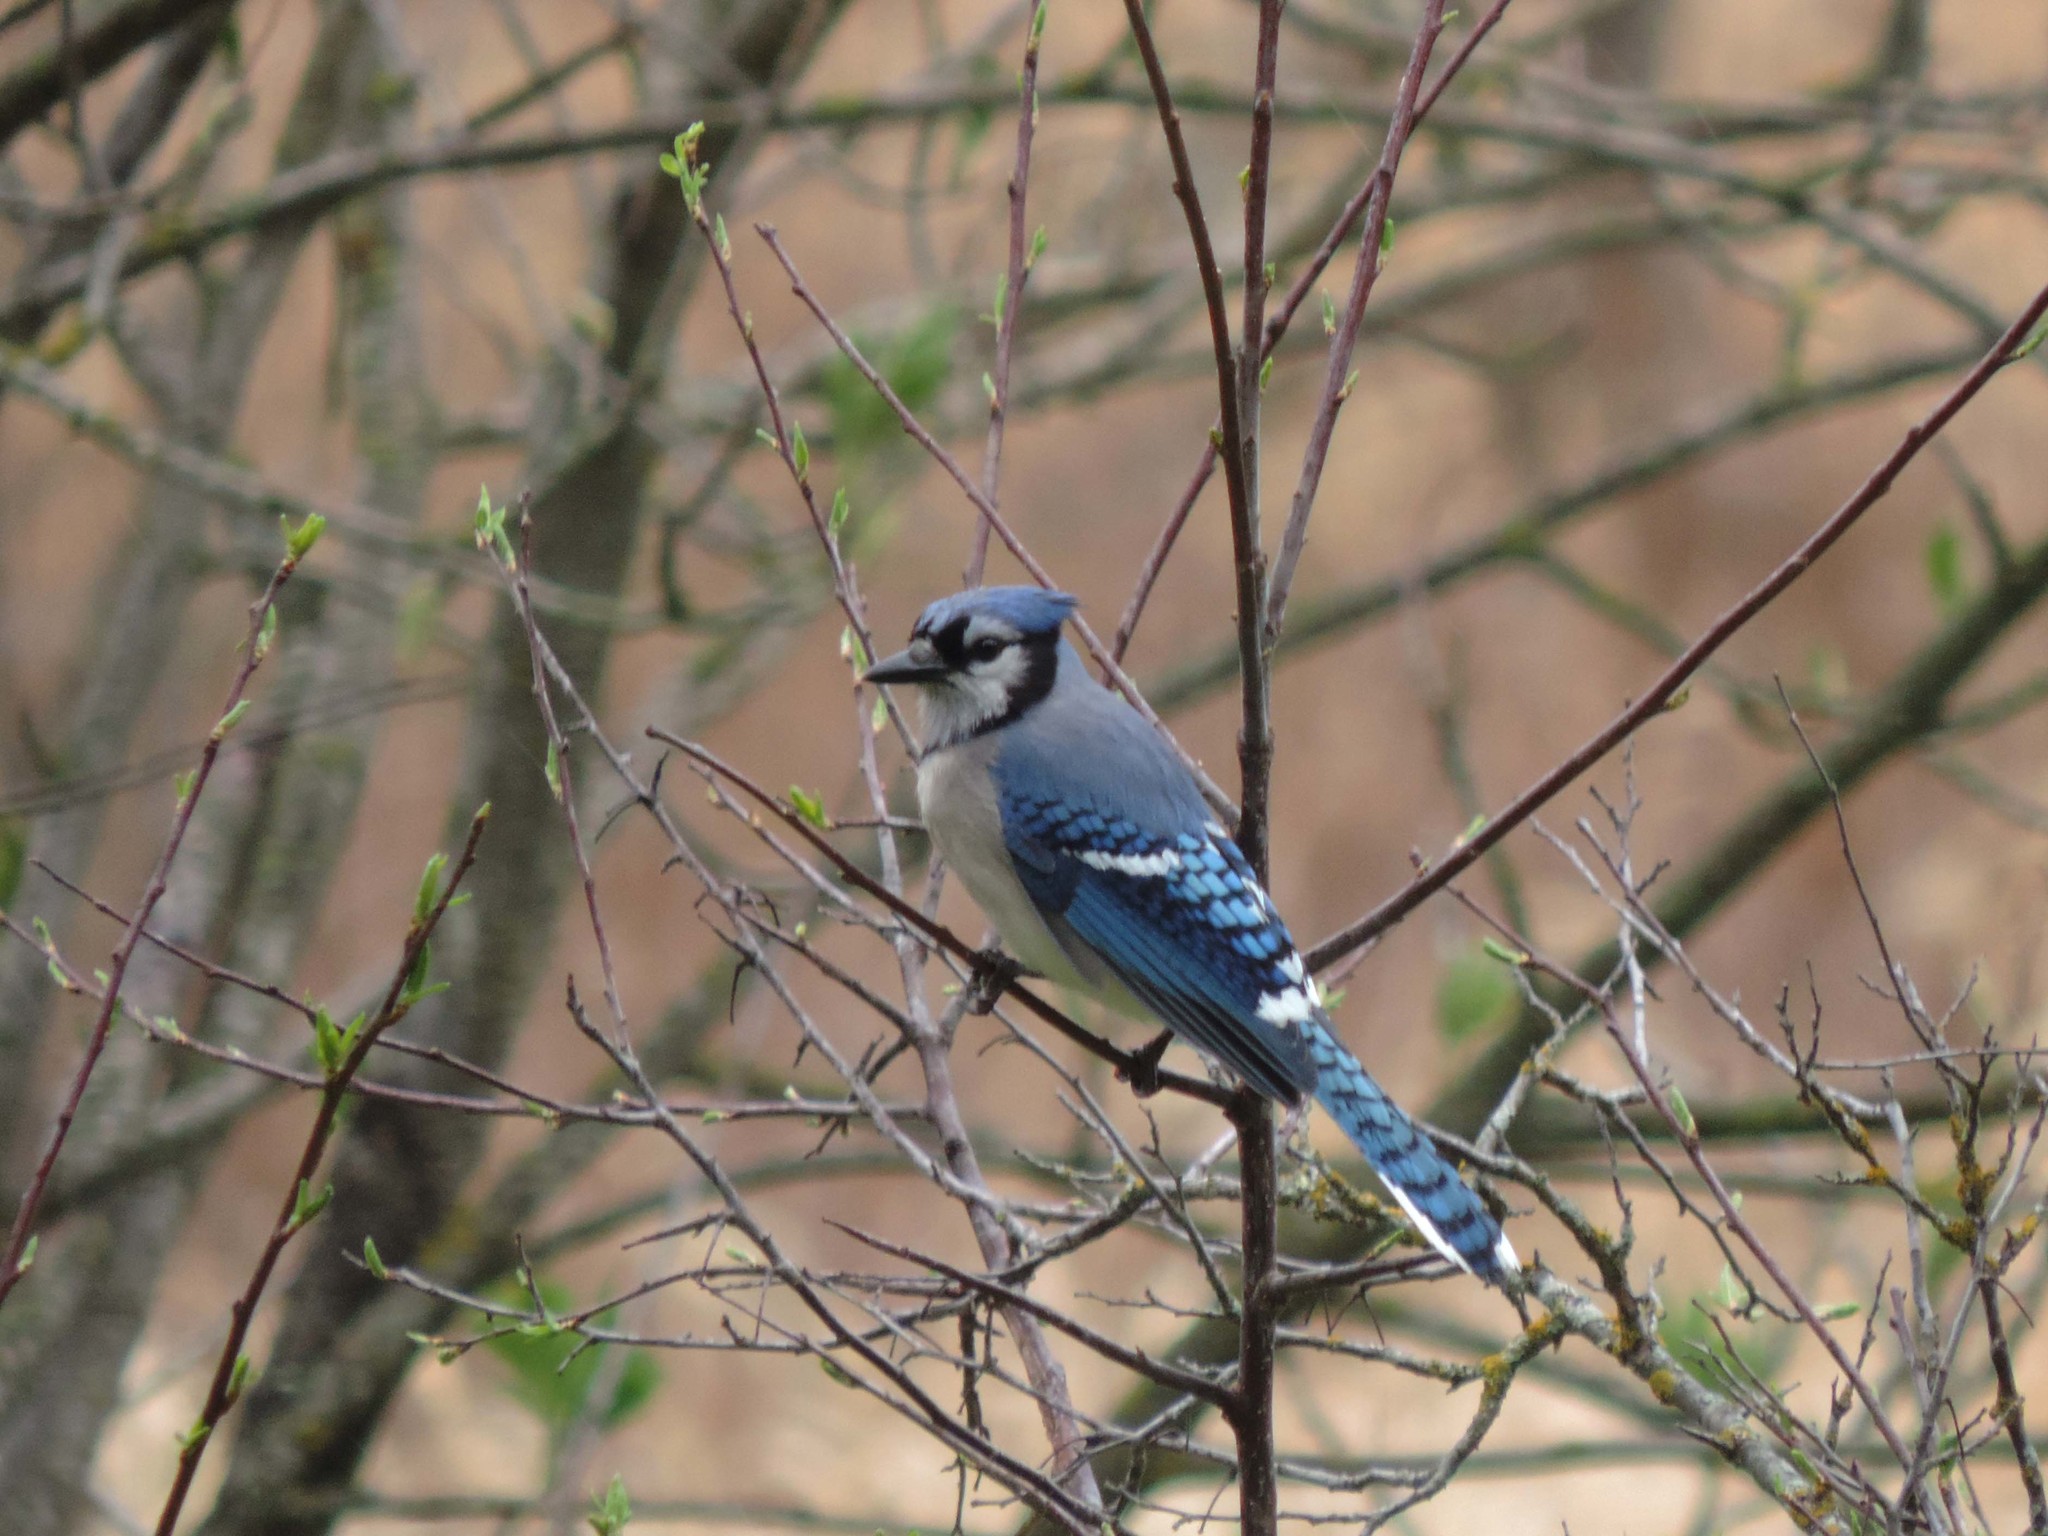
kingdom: Animalia
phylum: Chordata
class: Aves
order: Passeriformes
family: Corvidae
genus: Cyanocitta
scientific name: Cyanocitta cristata
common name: Blue jay
